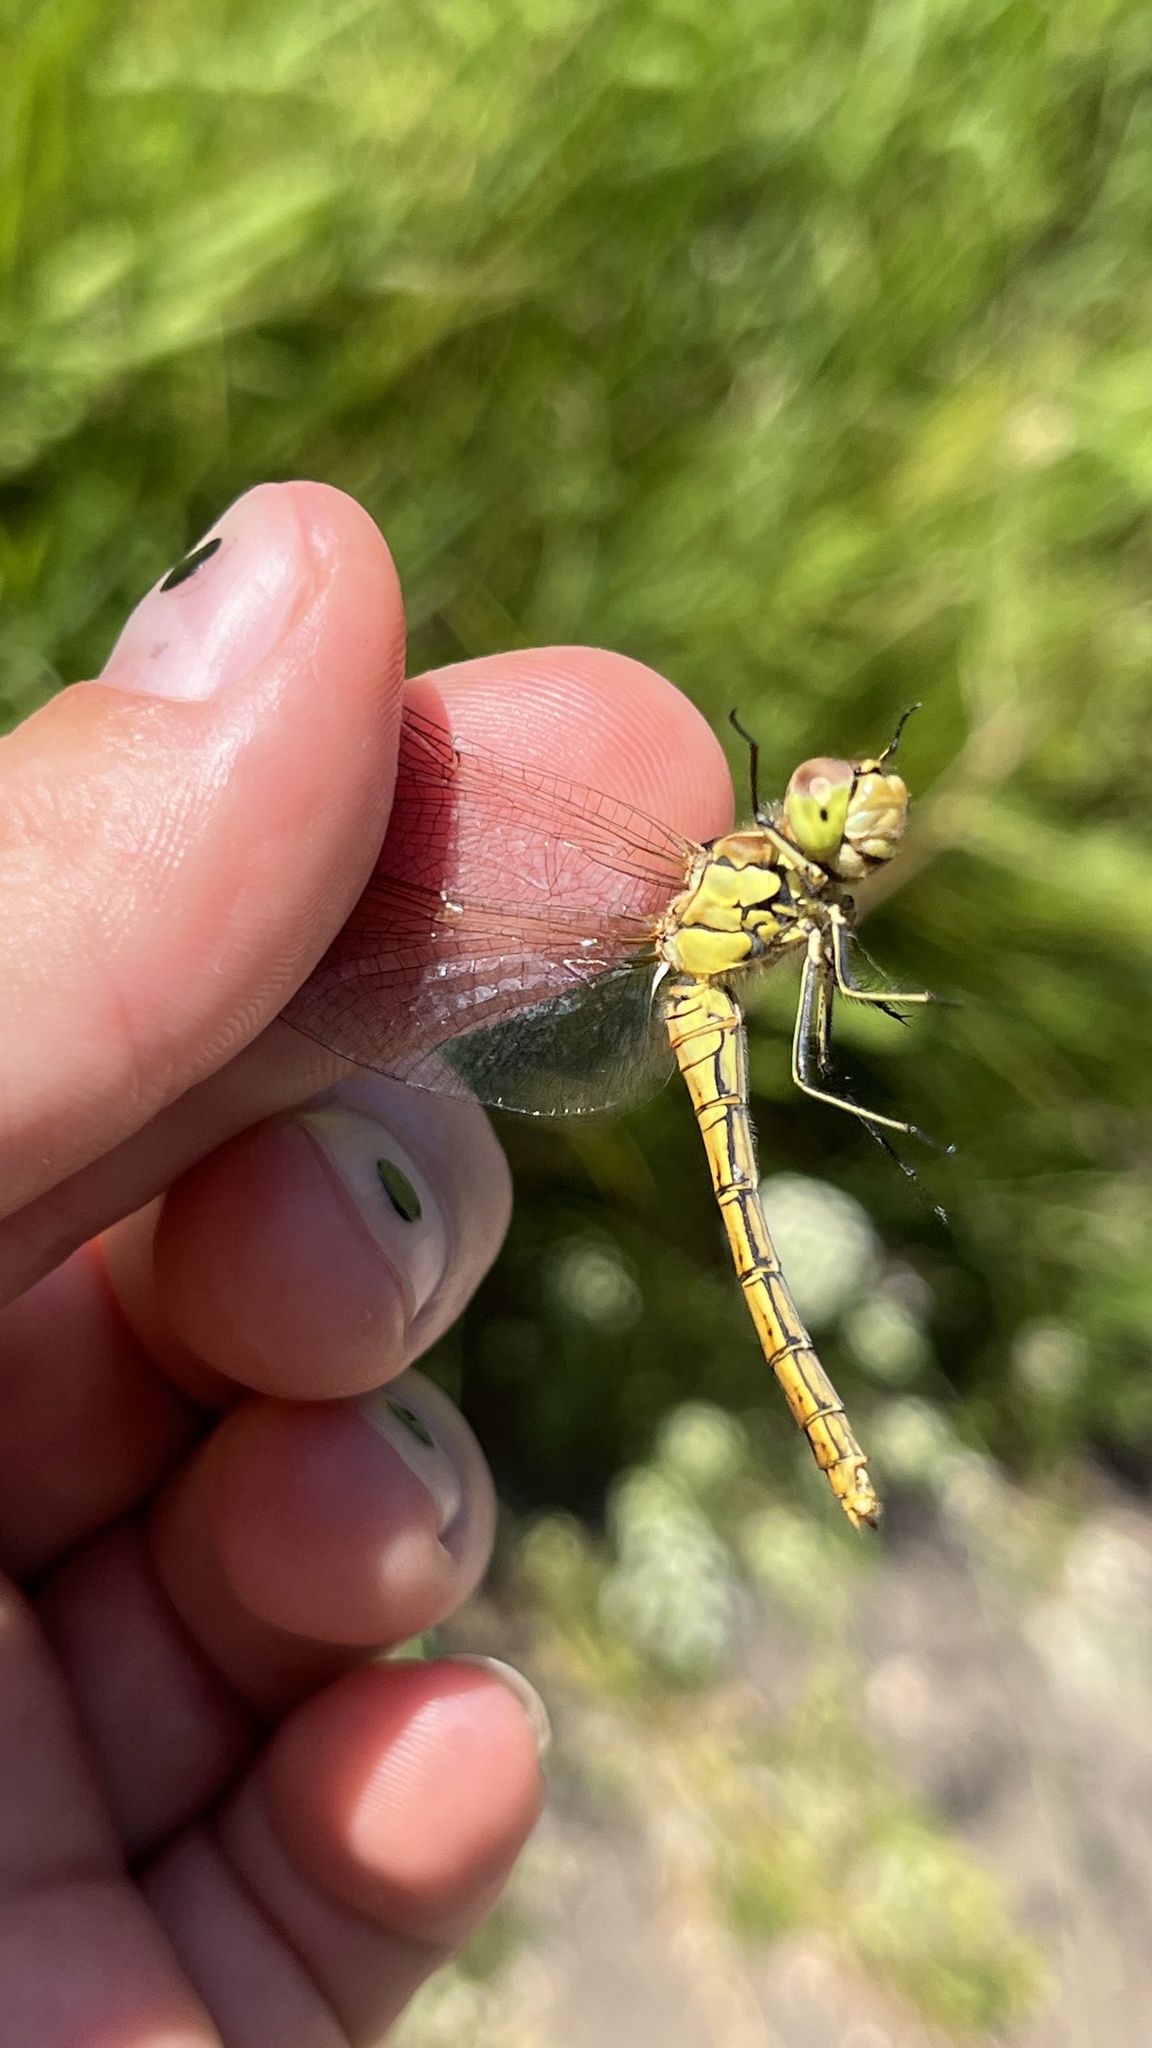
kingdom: Animalia
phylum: Arthropoda
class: Insecta
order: Odonata
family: Libellulidae
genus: Sympetrum
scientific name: Sympetrum vulgatum
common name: Vagrant darter
